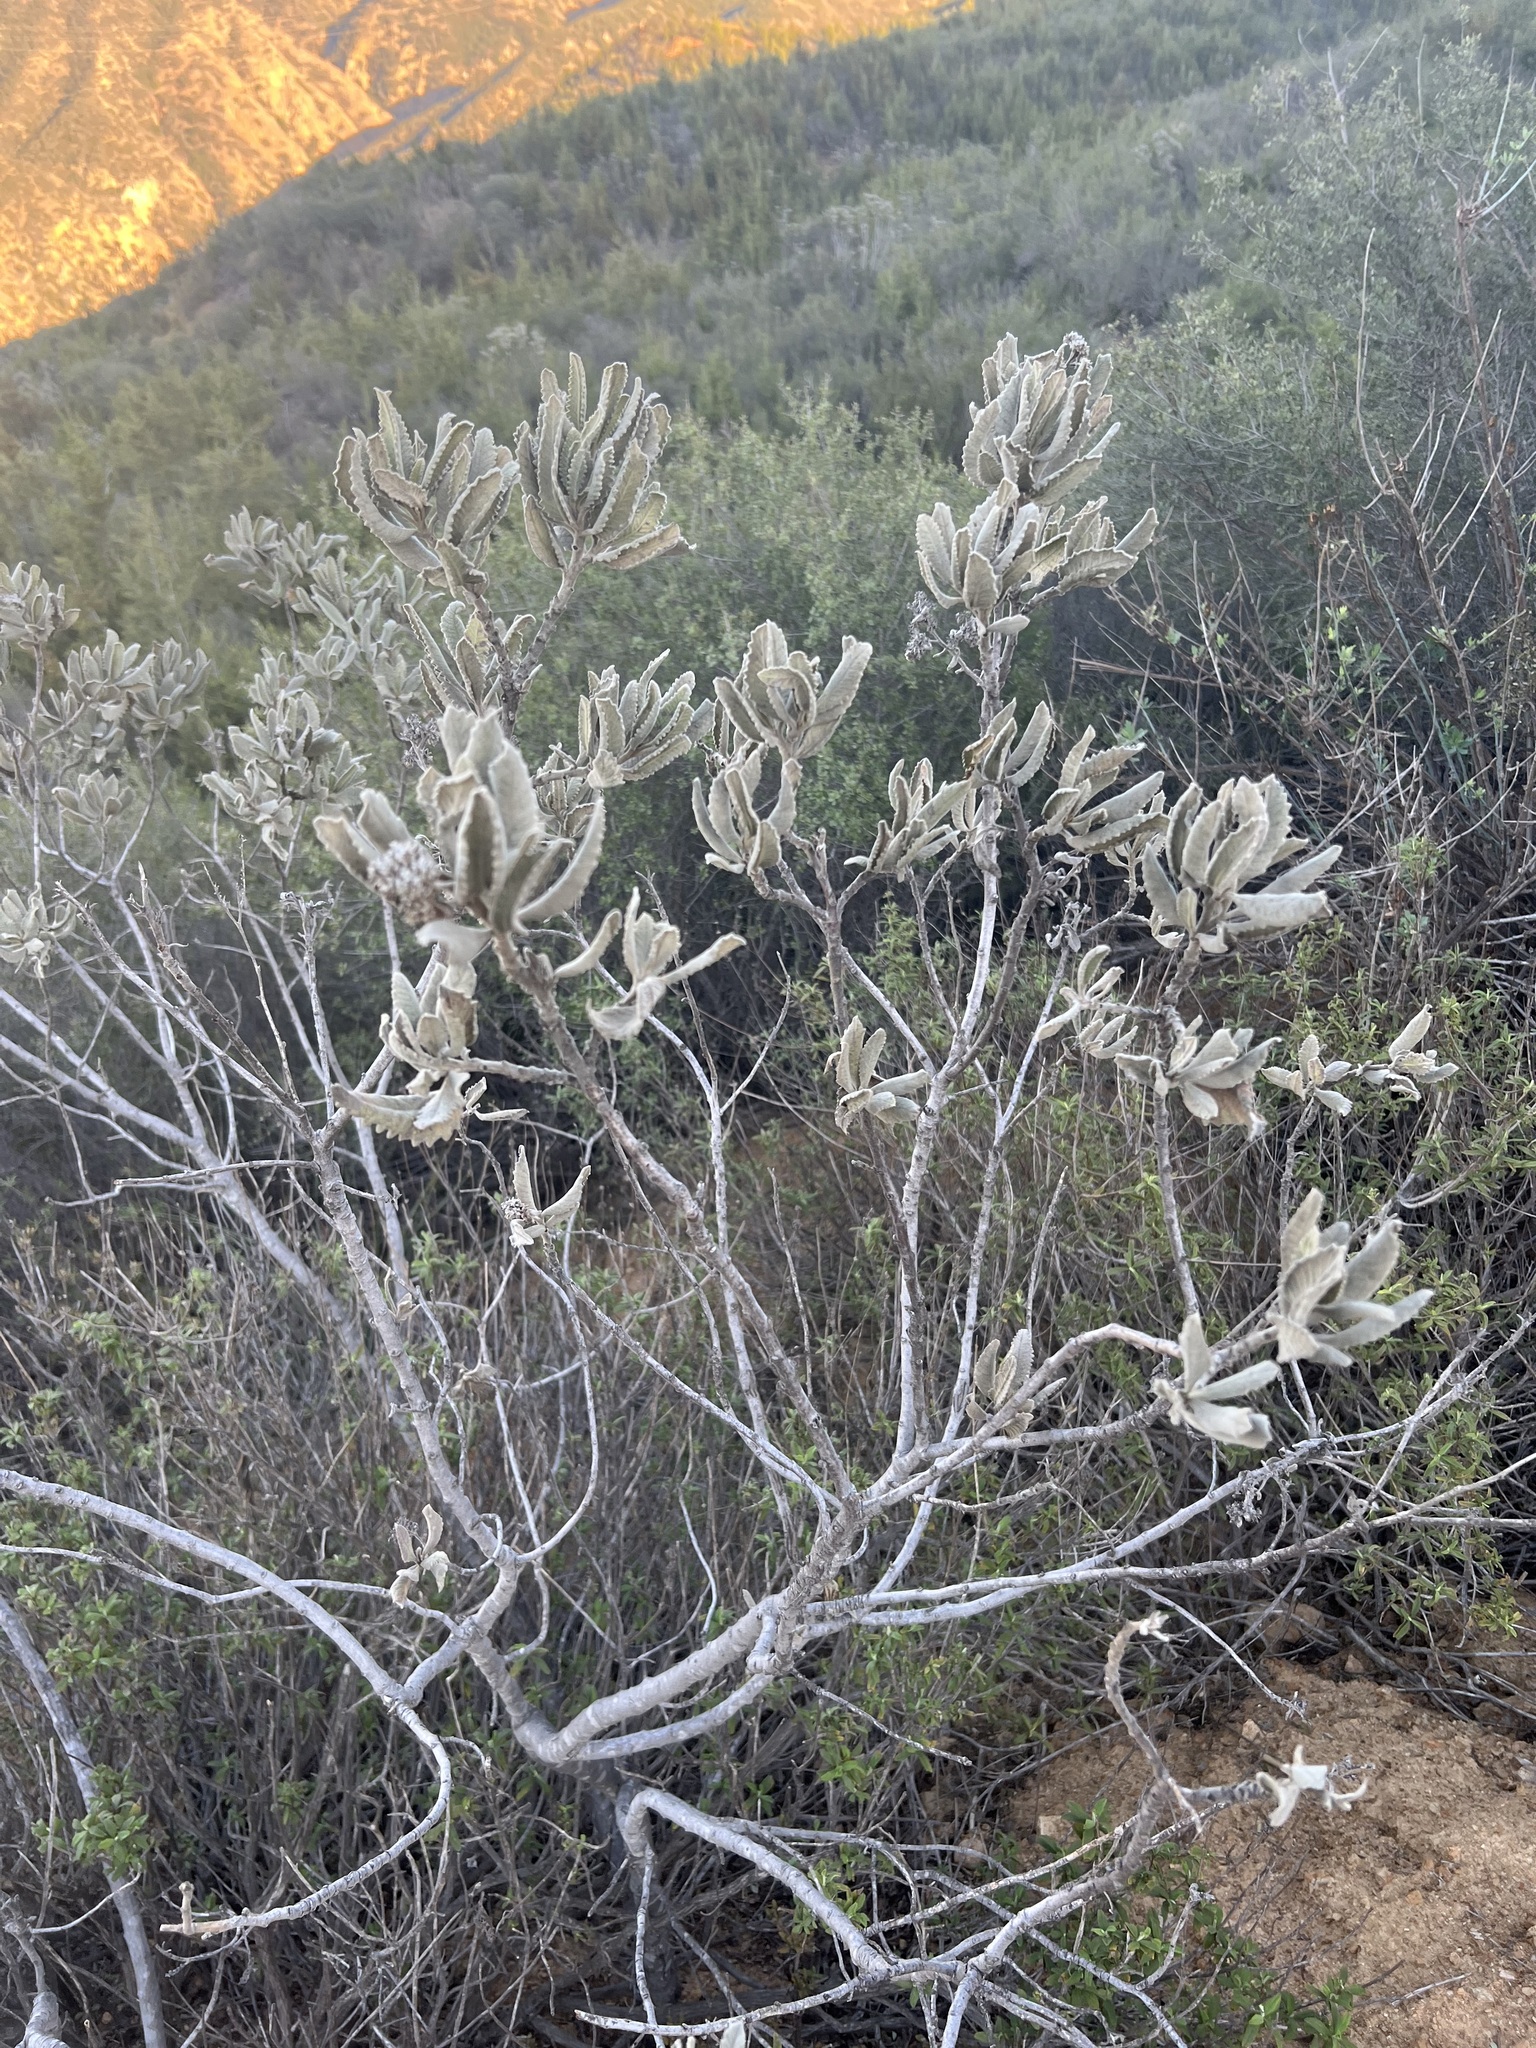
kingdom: Plantae
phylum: Tracheophyta
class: Magnoliopsida
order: Boraginales
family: Namaceae
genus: Eriodictyon
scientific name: Eriodictyon crassifolium
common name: Thick-leaf yerba-santa
